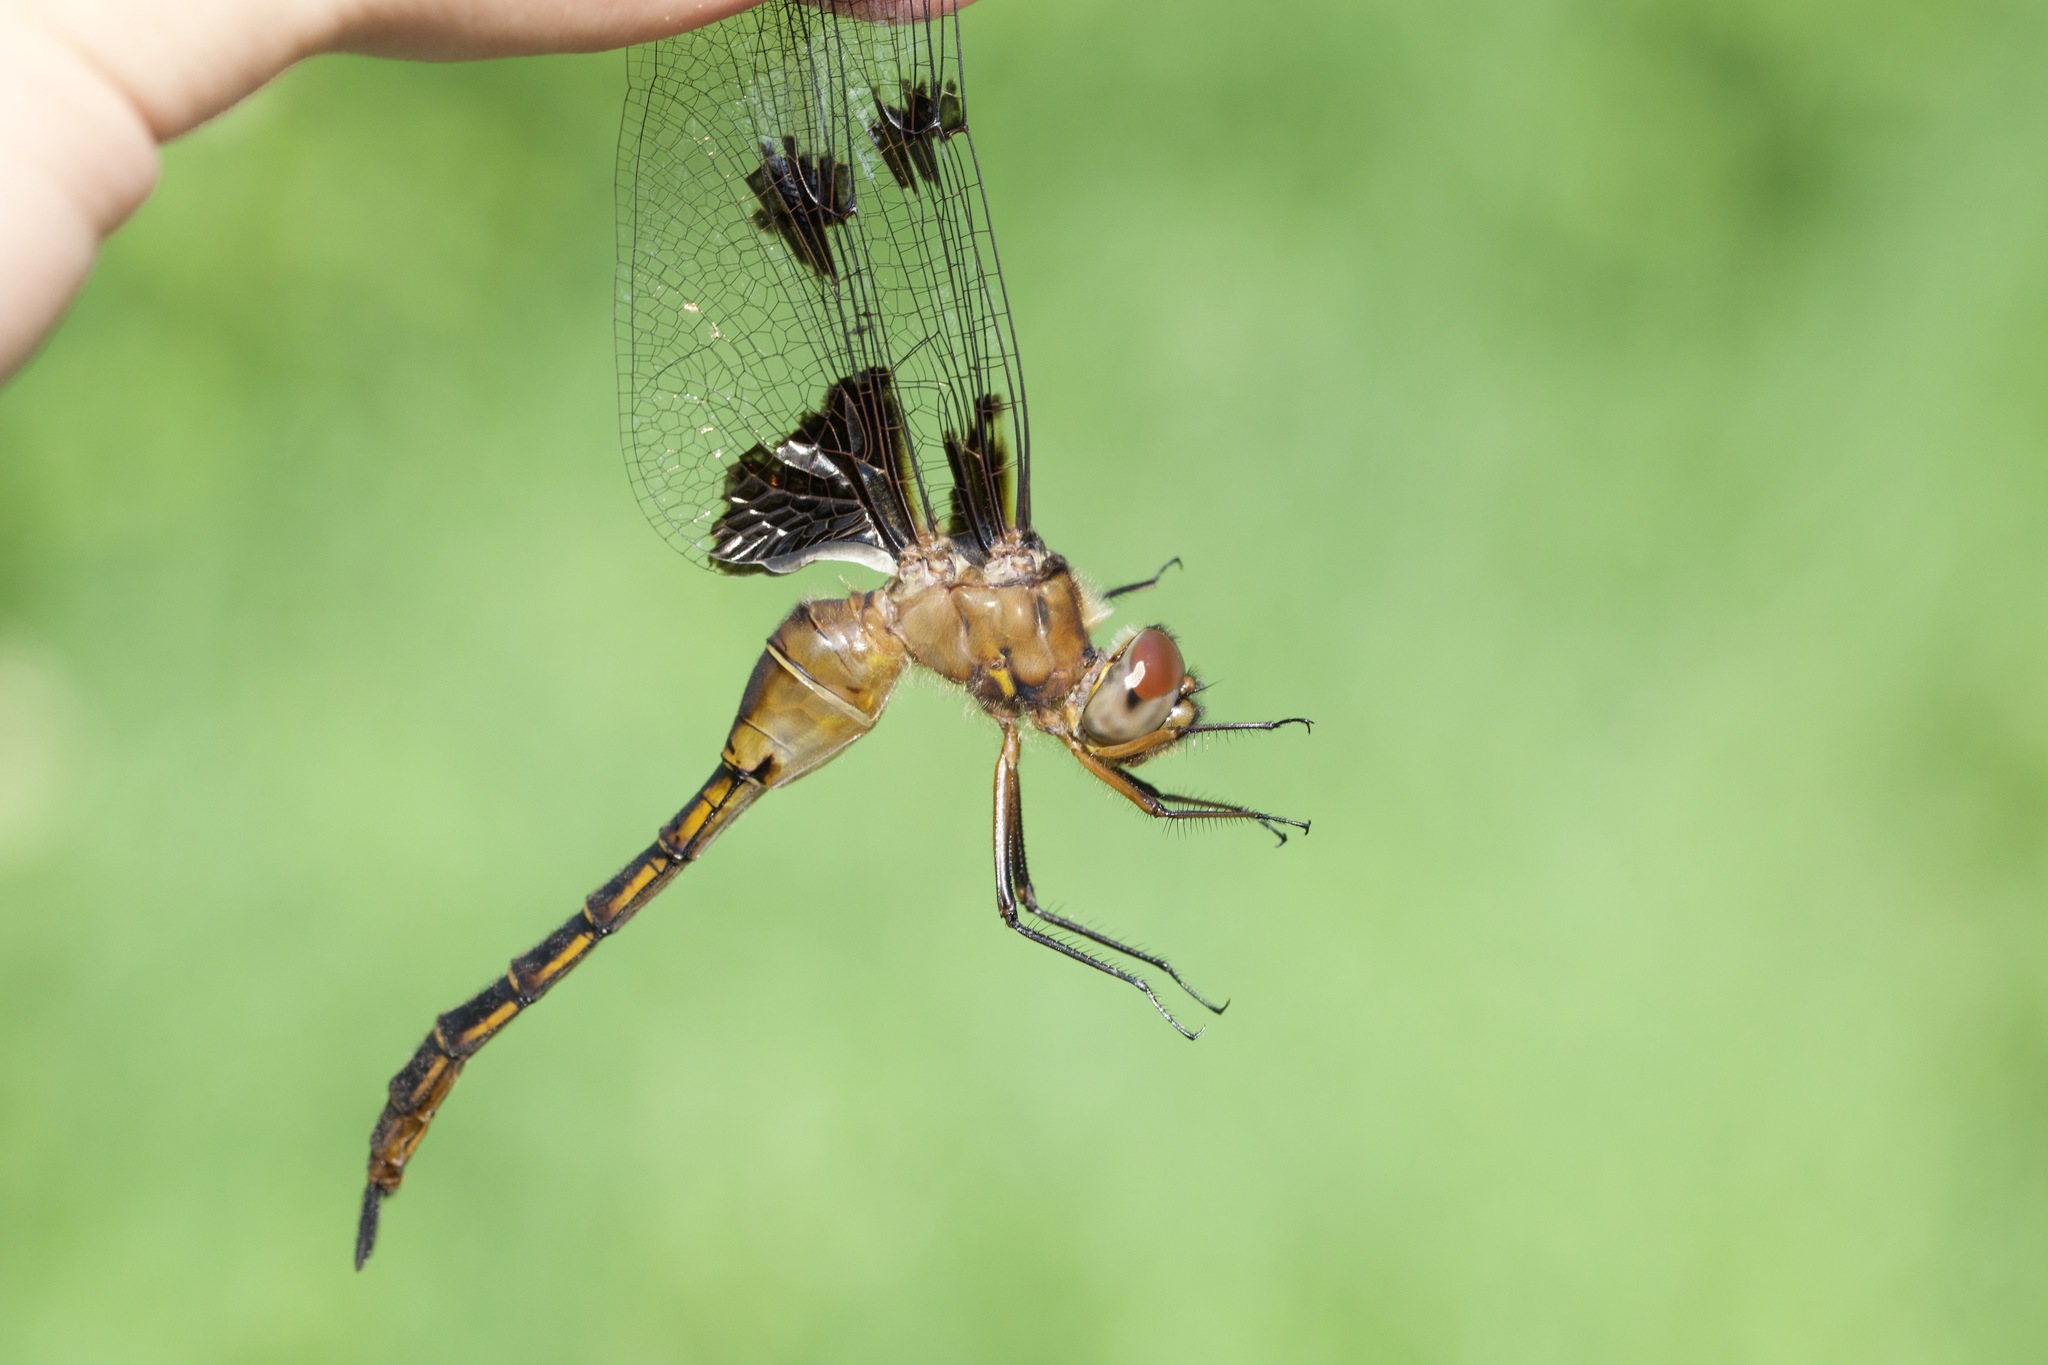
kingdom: Animalia
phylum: Arthropoda
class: Insecta
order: Odonata
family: Corduliidae
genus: Epitheca
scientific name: Epitheca princeps
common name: Prince baskettail
